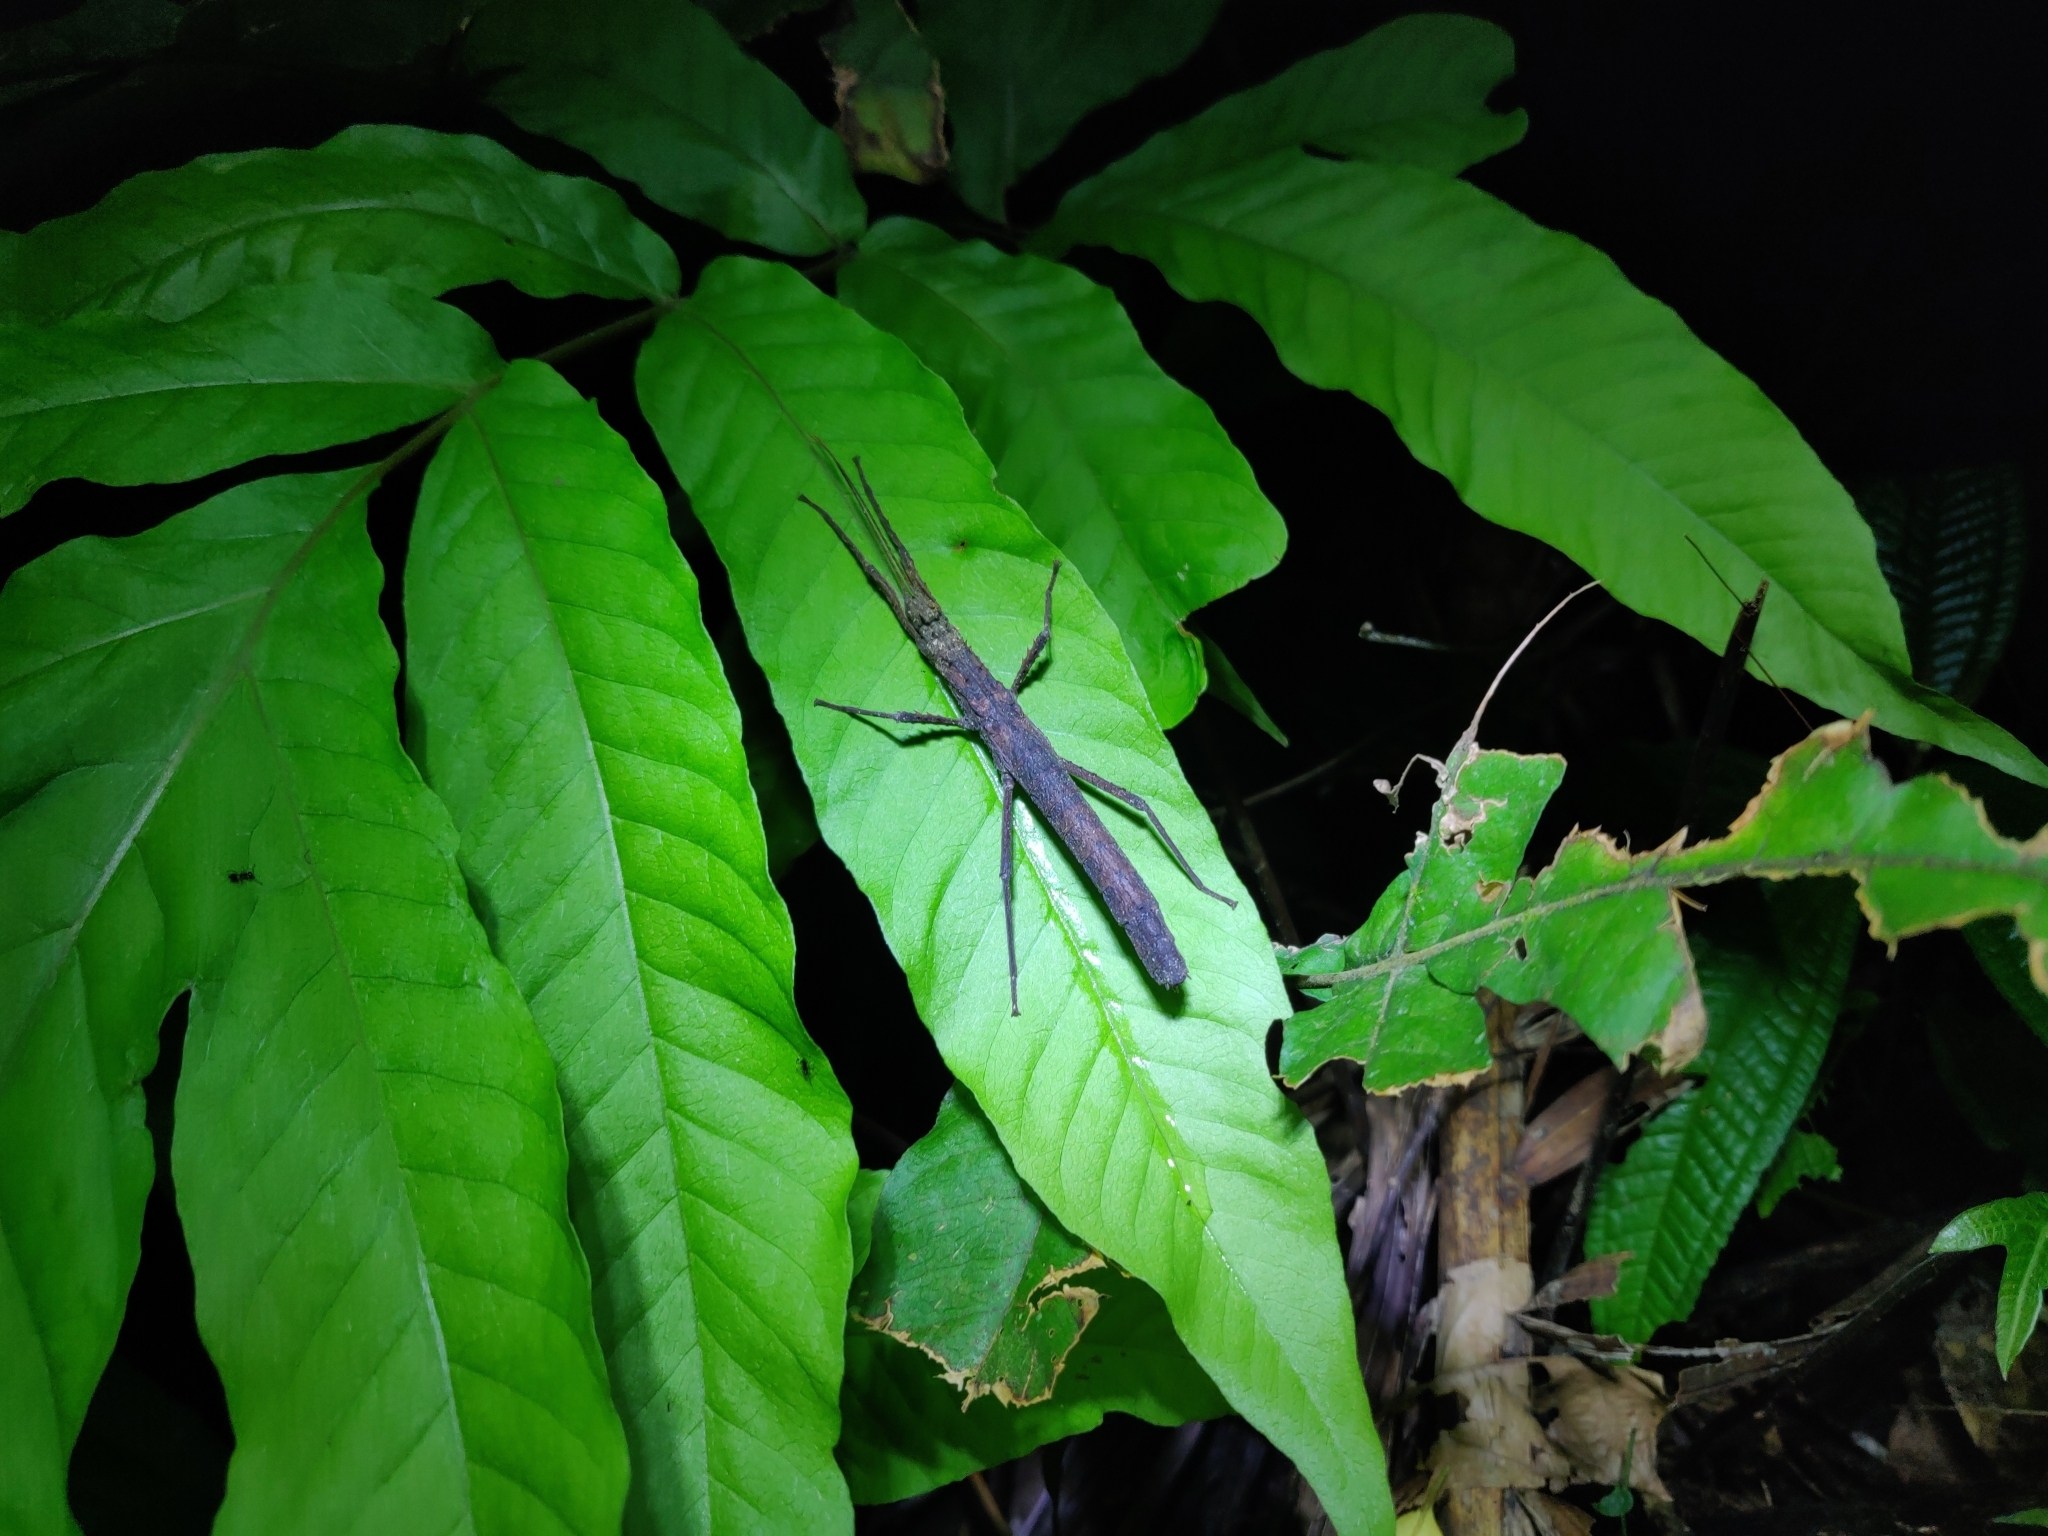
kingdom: Animalia
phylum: Arthropoda
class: Insecta
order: Phasmida
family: Pseudophasmatidae
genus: Creoxylus
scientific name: Creoxylus spinosus
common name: Trinidad log stick insect
